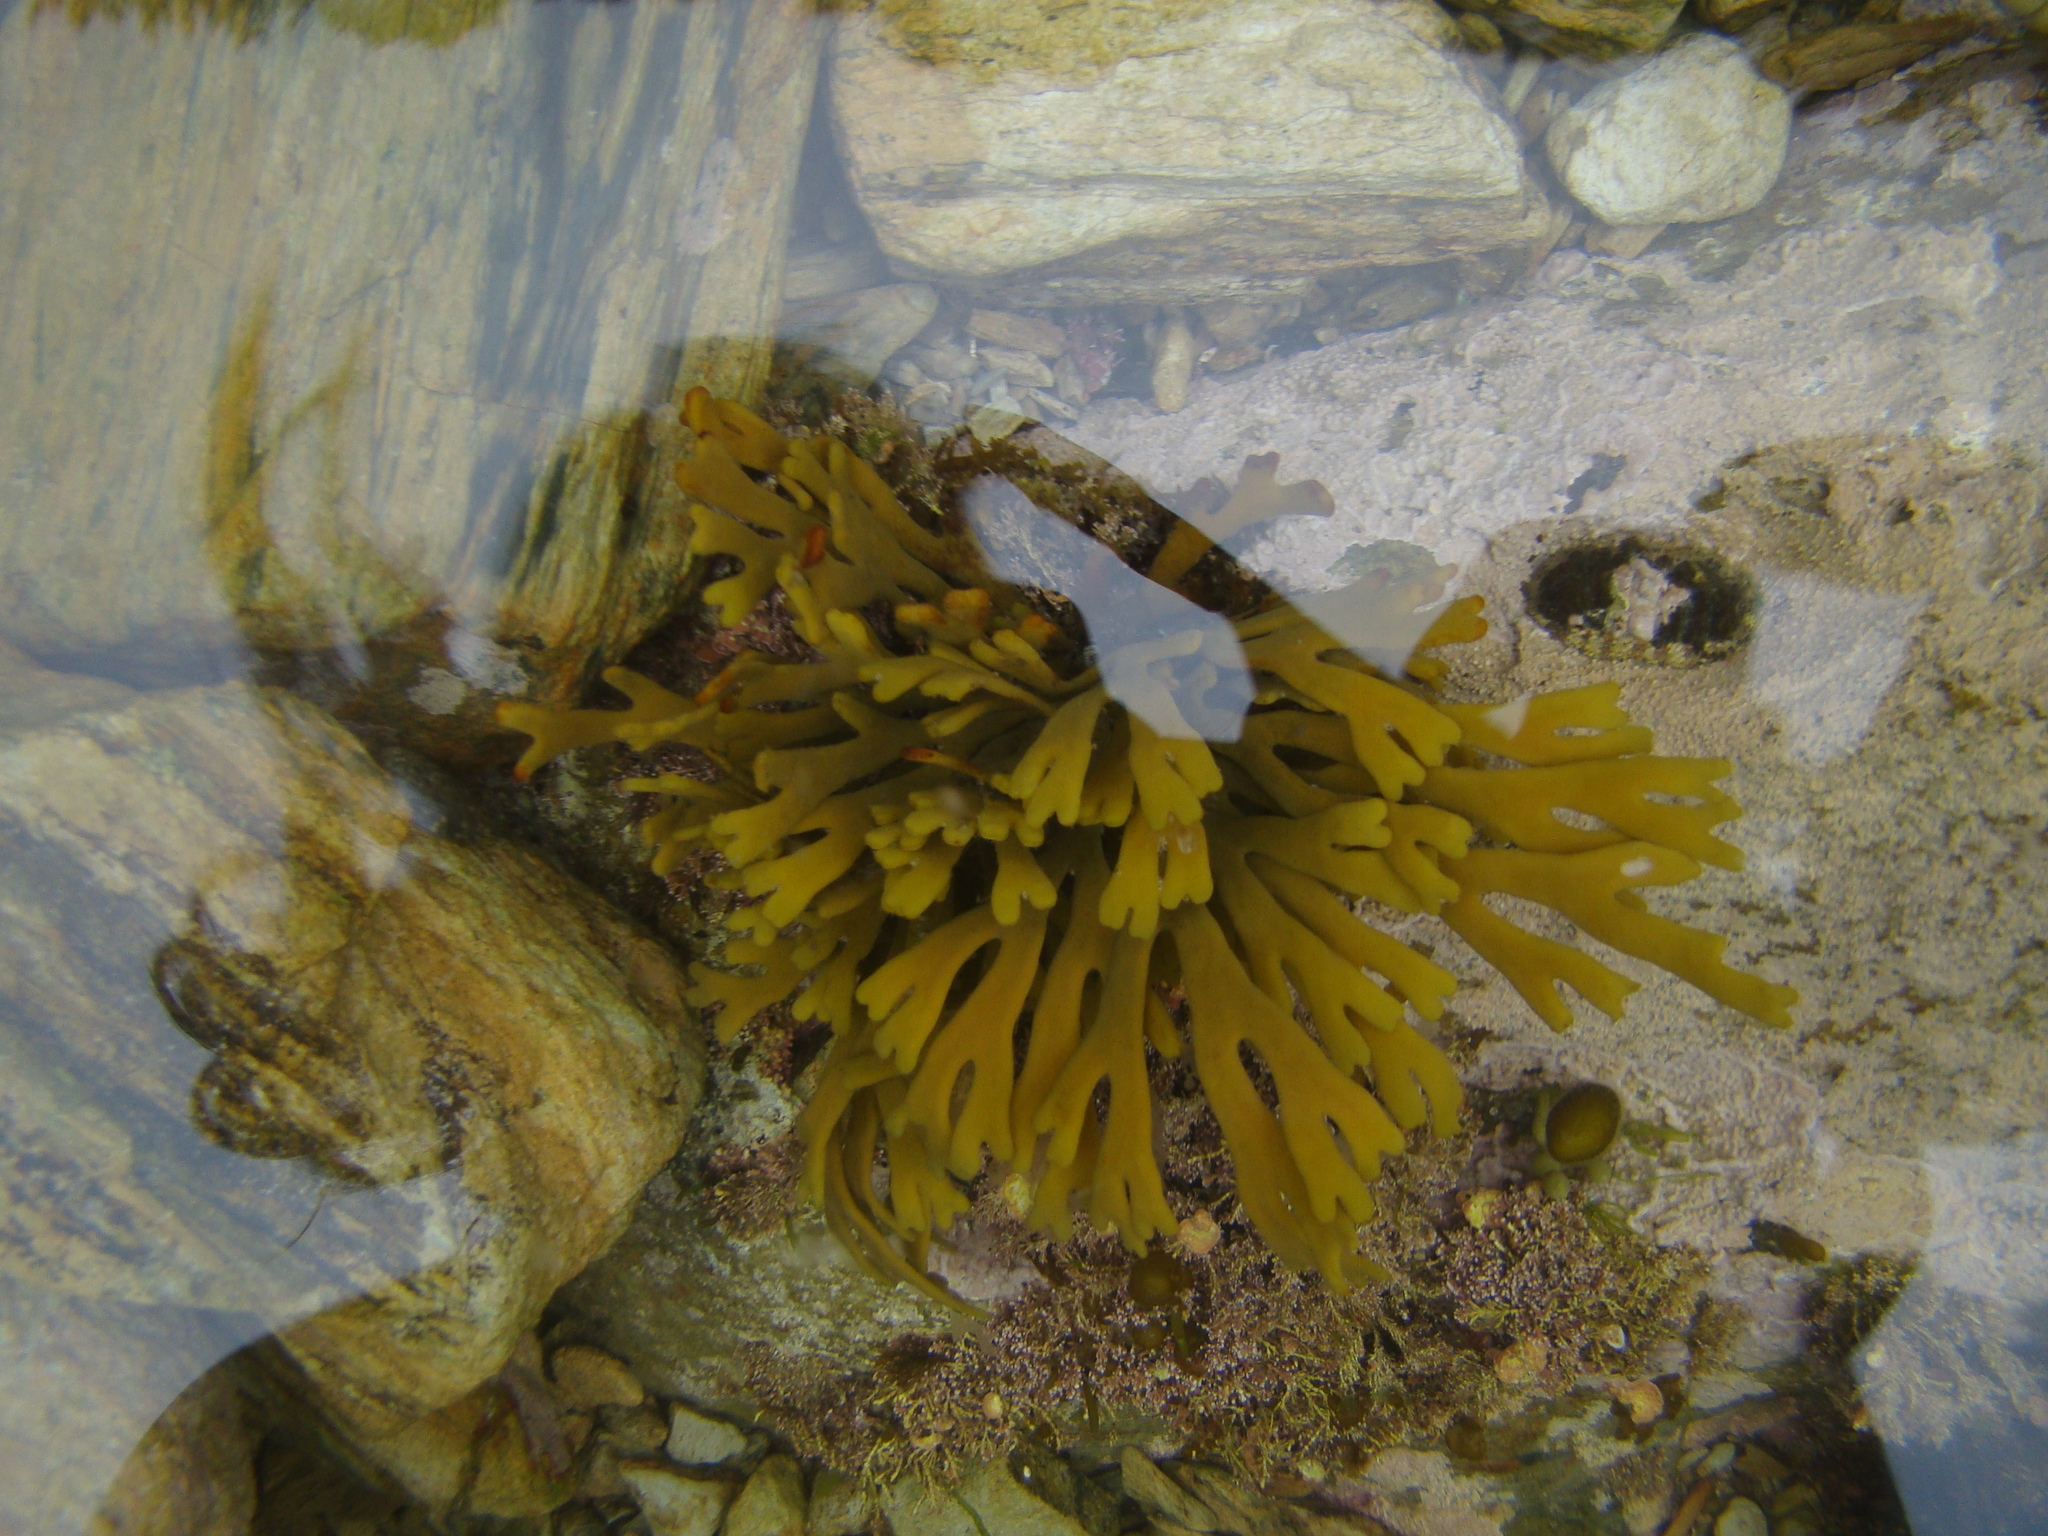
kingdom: Chromista
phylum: Ochrophyta
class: Phaeophyceae
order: Fucales
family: Xiphophoraceae
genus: Xiphophora
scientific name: Xiphophora gladiata
